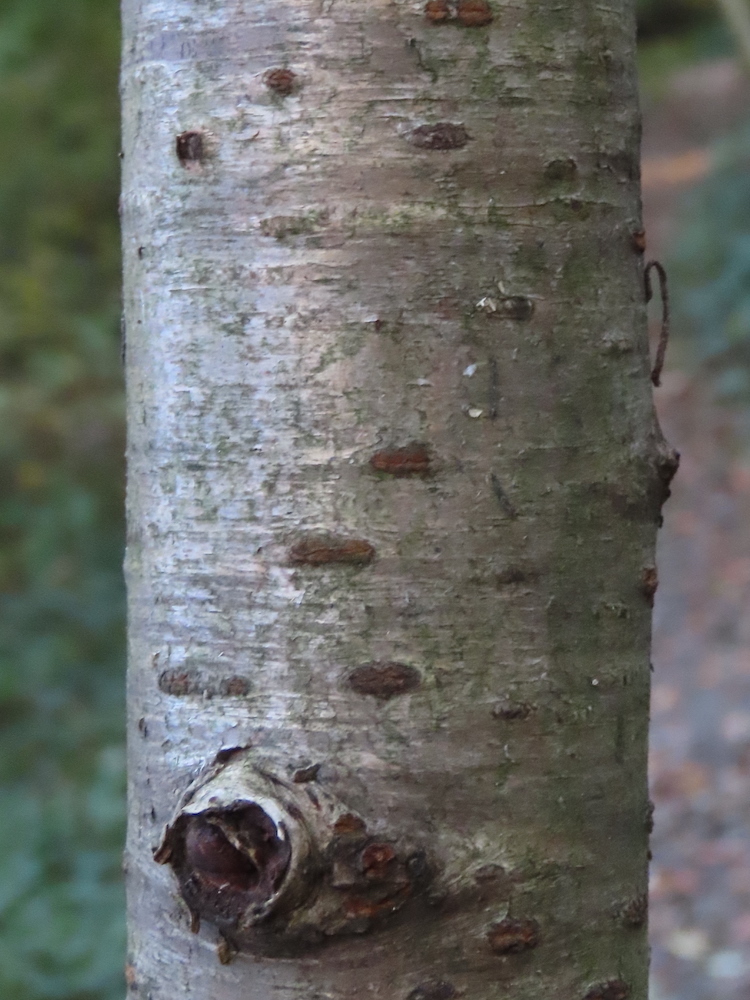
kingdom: Plantae
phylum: Tracheophyta
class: Magnoliopsida
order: Rosales
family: Rosaceae
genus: Prunus
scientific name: Prunus avium
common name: Sweet cherry
